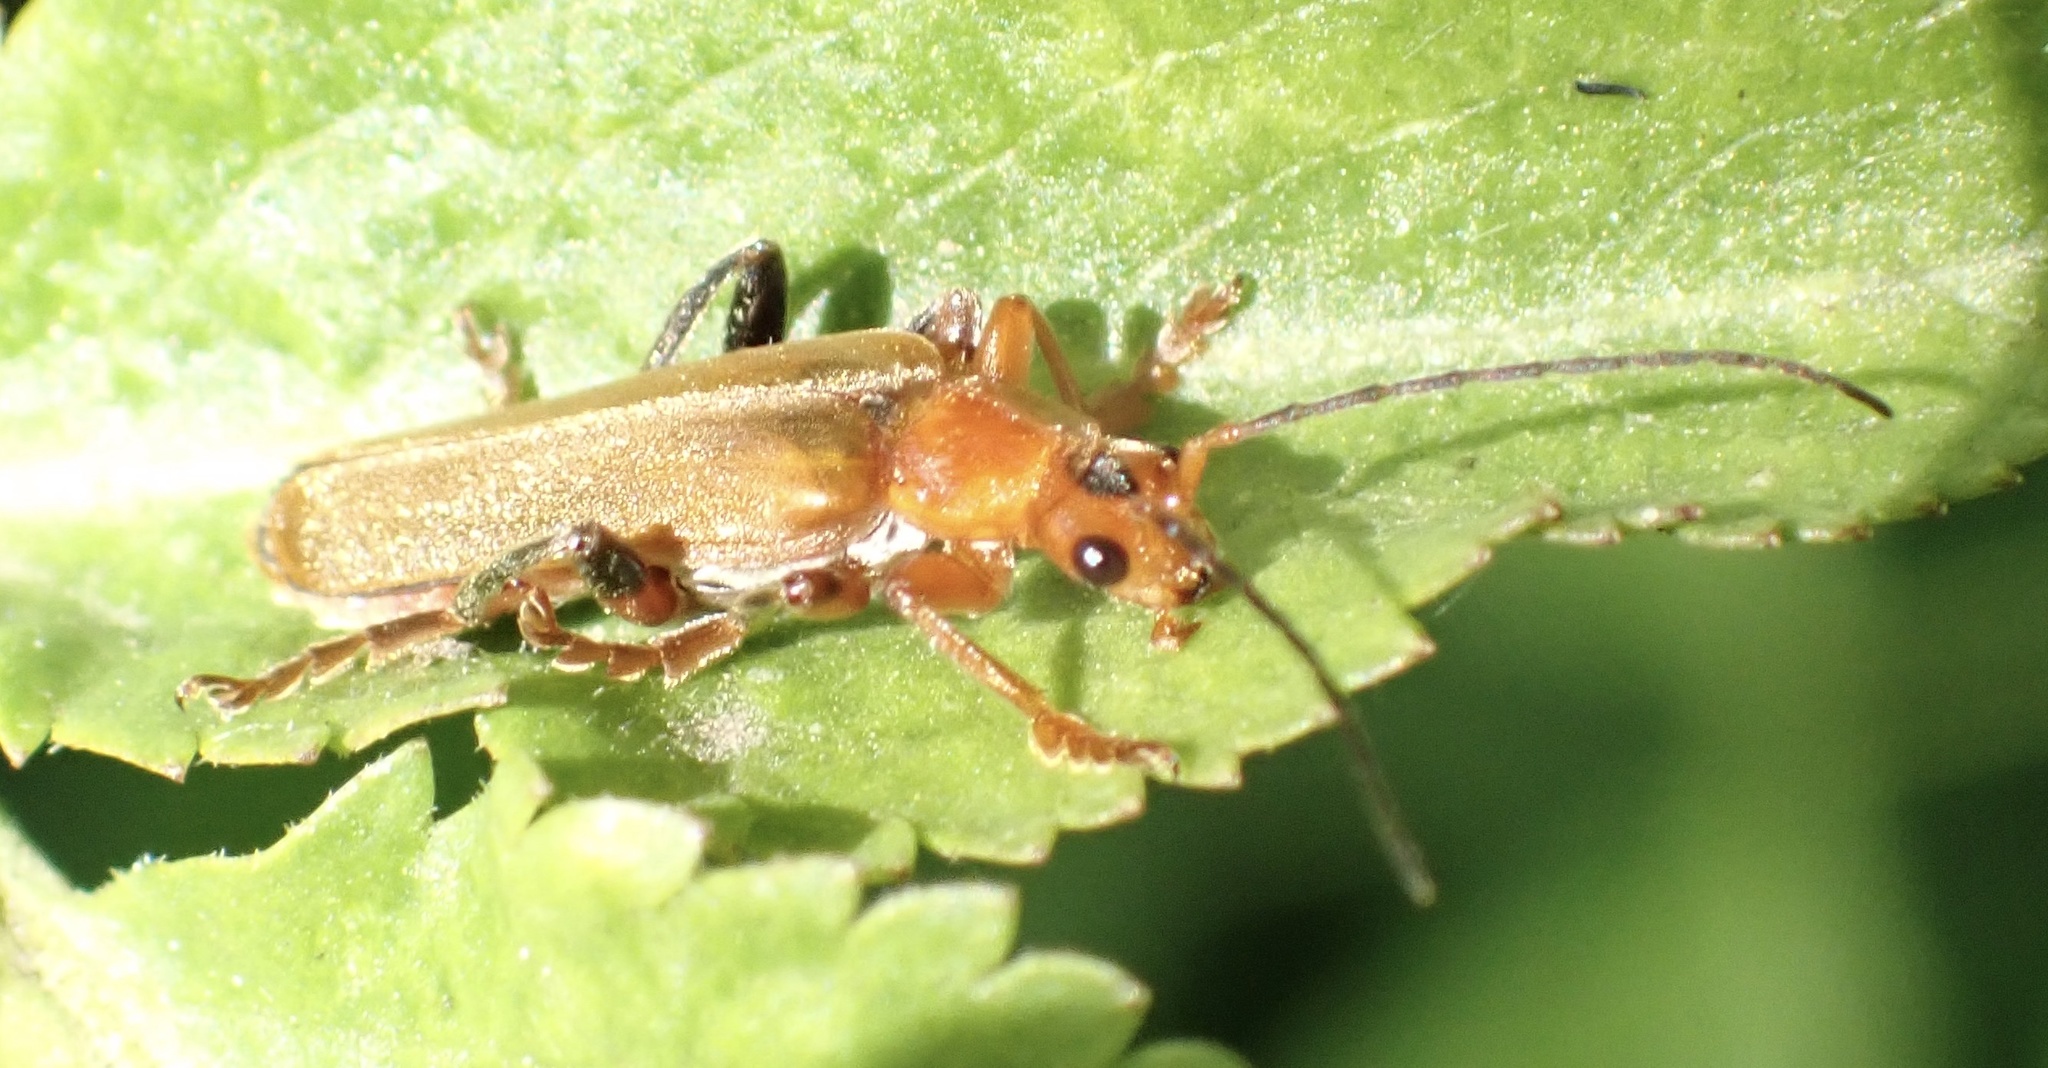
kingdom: Animalia
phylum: Arthropoda
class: Insecta
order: Coleoptera
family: Cantharidae
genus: Cantharis
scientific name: Cantharis livida
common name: Livid soldier beetle
